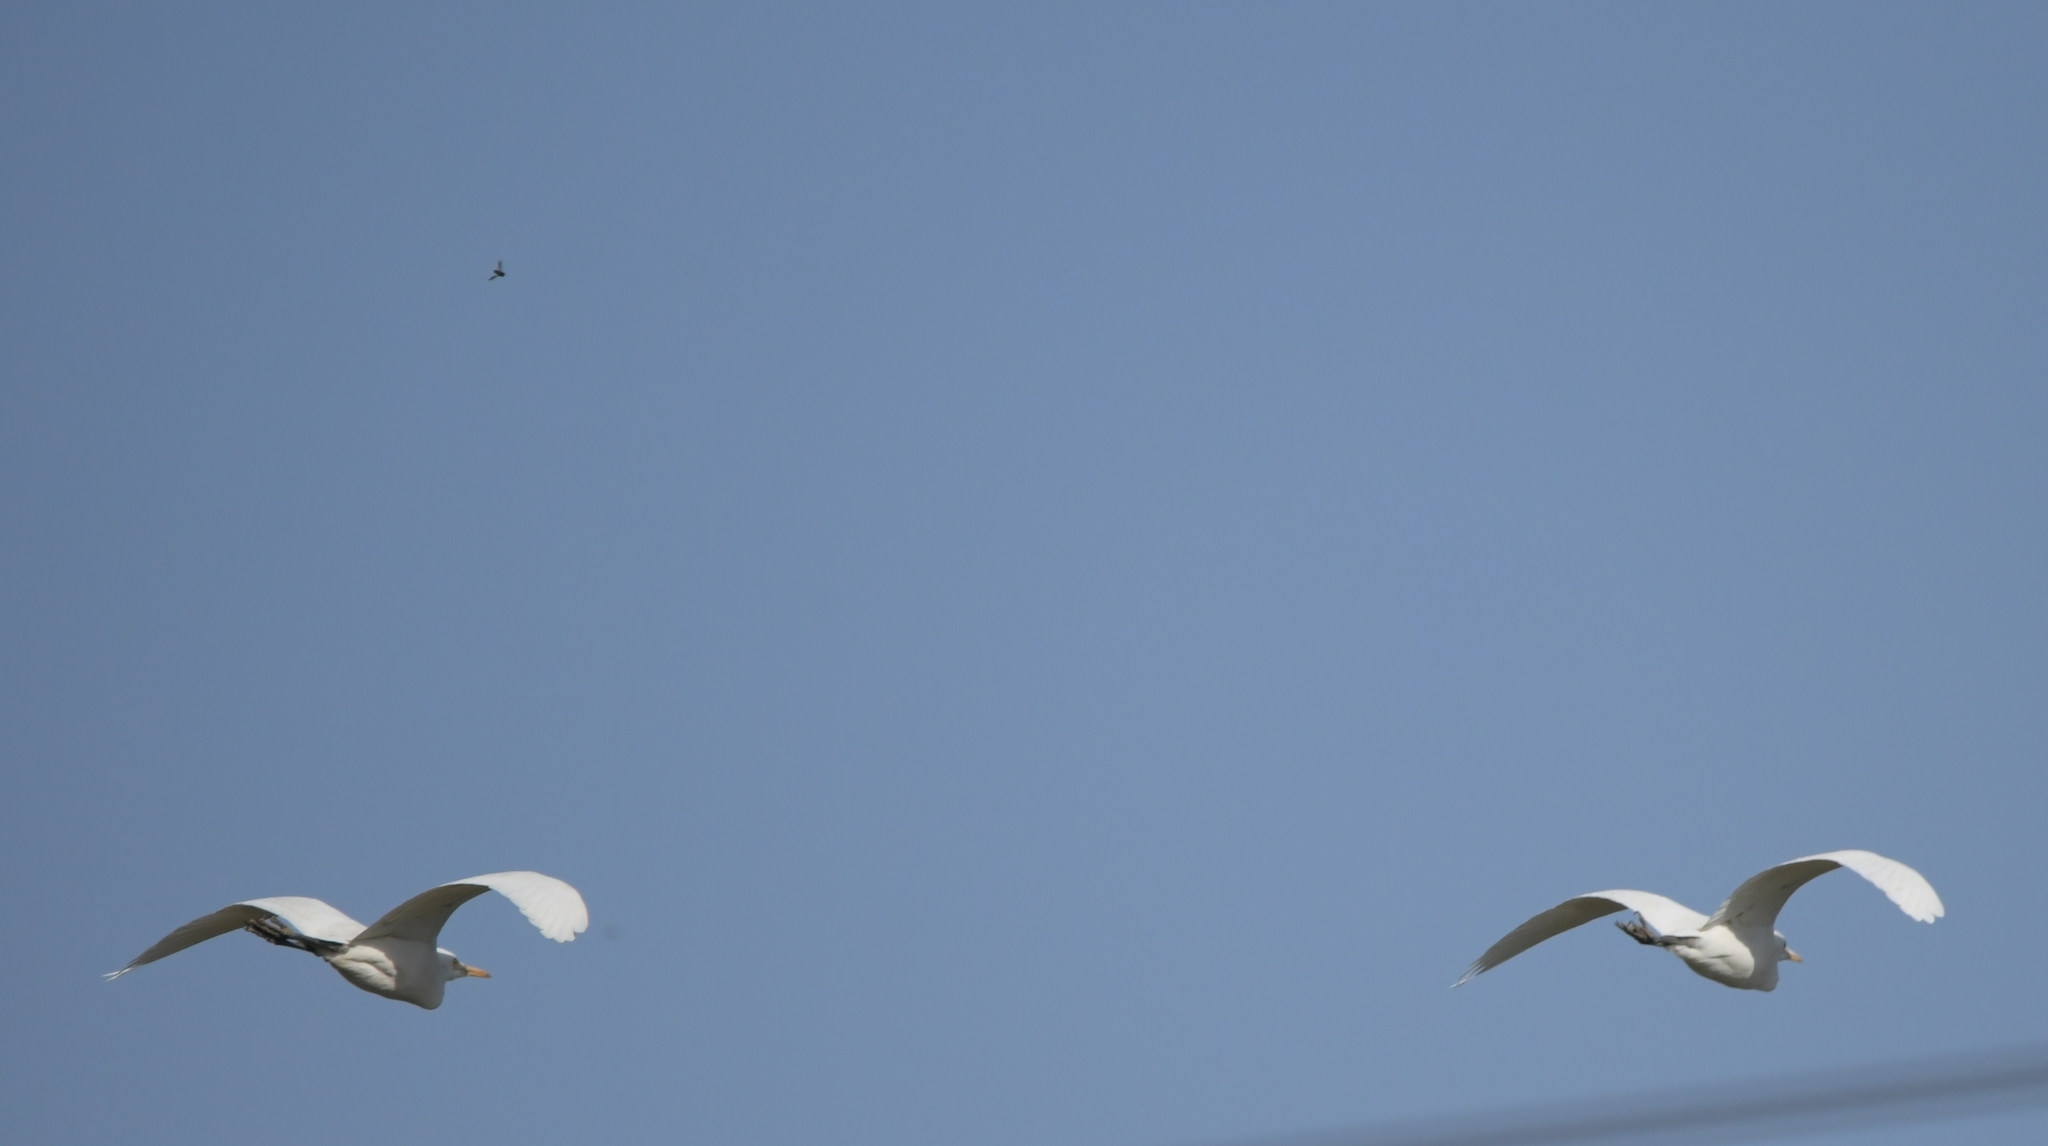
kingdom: Animalia
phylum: Chordata
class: Aves
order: Pelecaniformes
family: Ardeidae
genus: Bubulcus
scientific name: Bubulcus coromandus
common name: Eastern cattle egret
